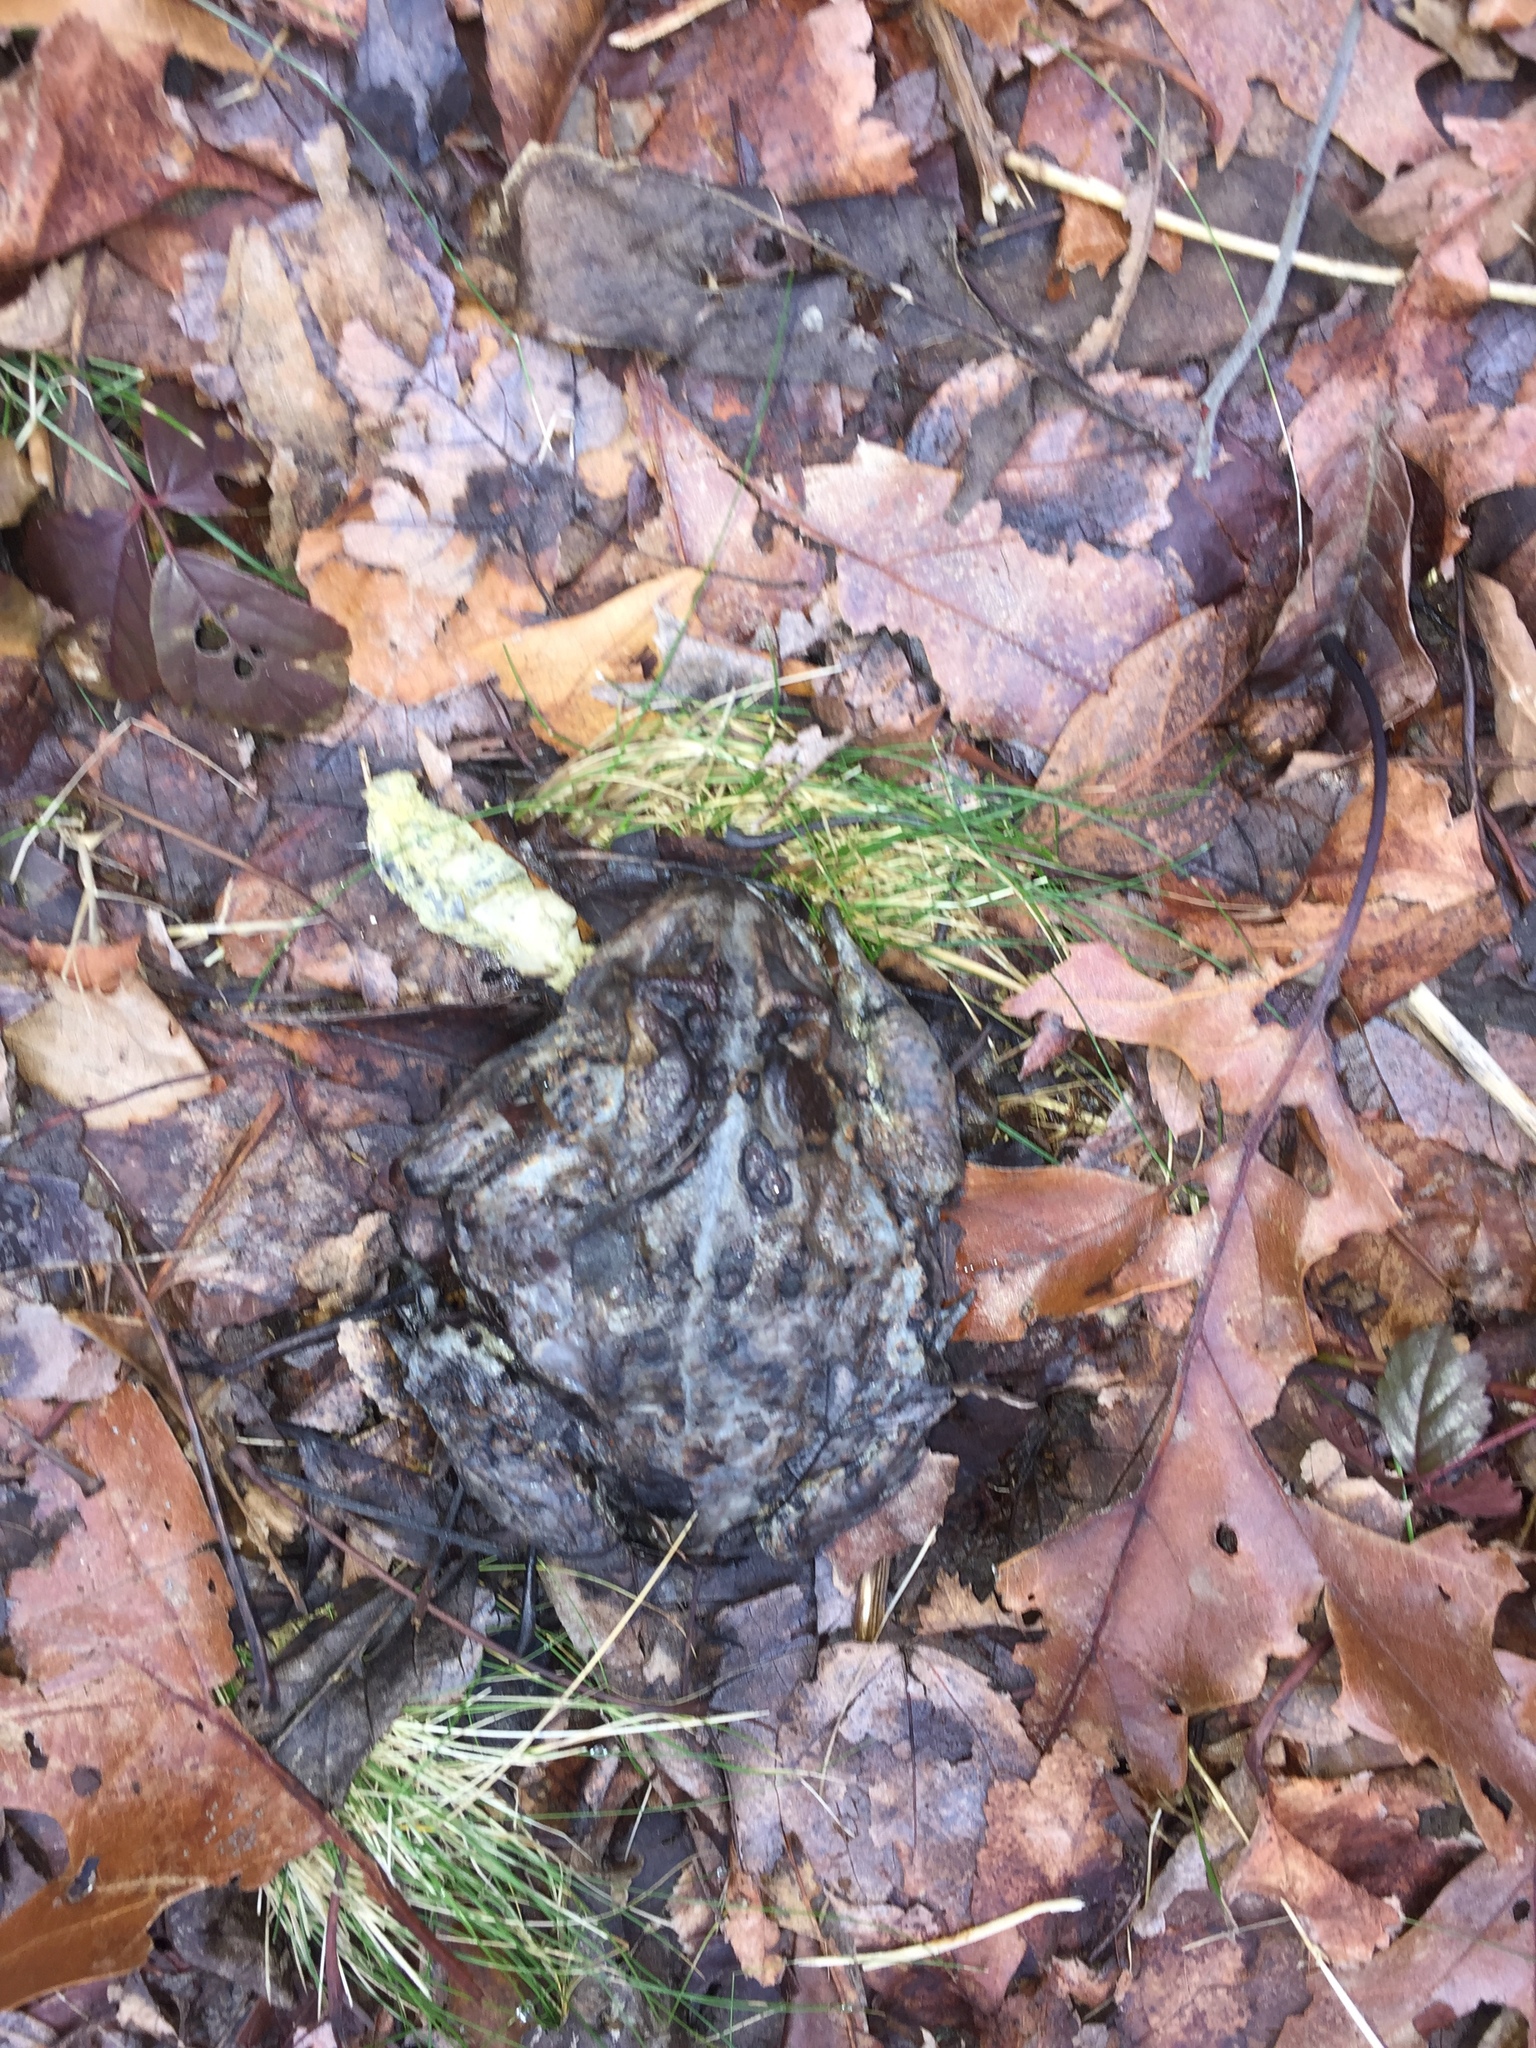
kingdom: Animalia
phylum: Chordata
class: Amphibia
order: Anura
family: Bufonidae
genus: Anaxyrus
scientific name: Anaxyrus americanus
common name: American toad
